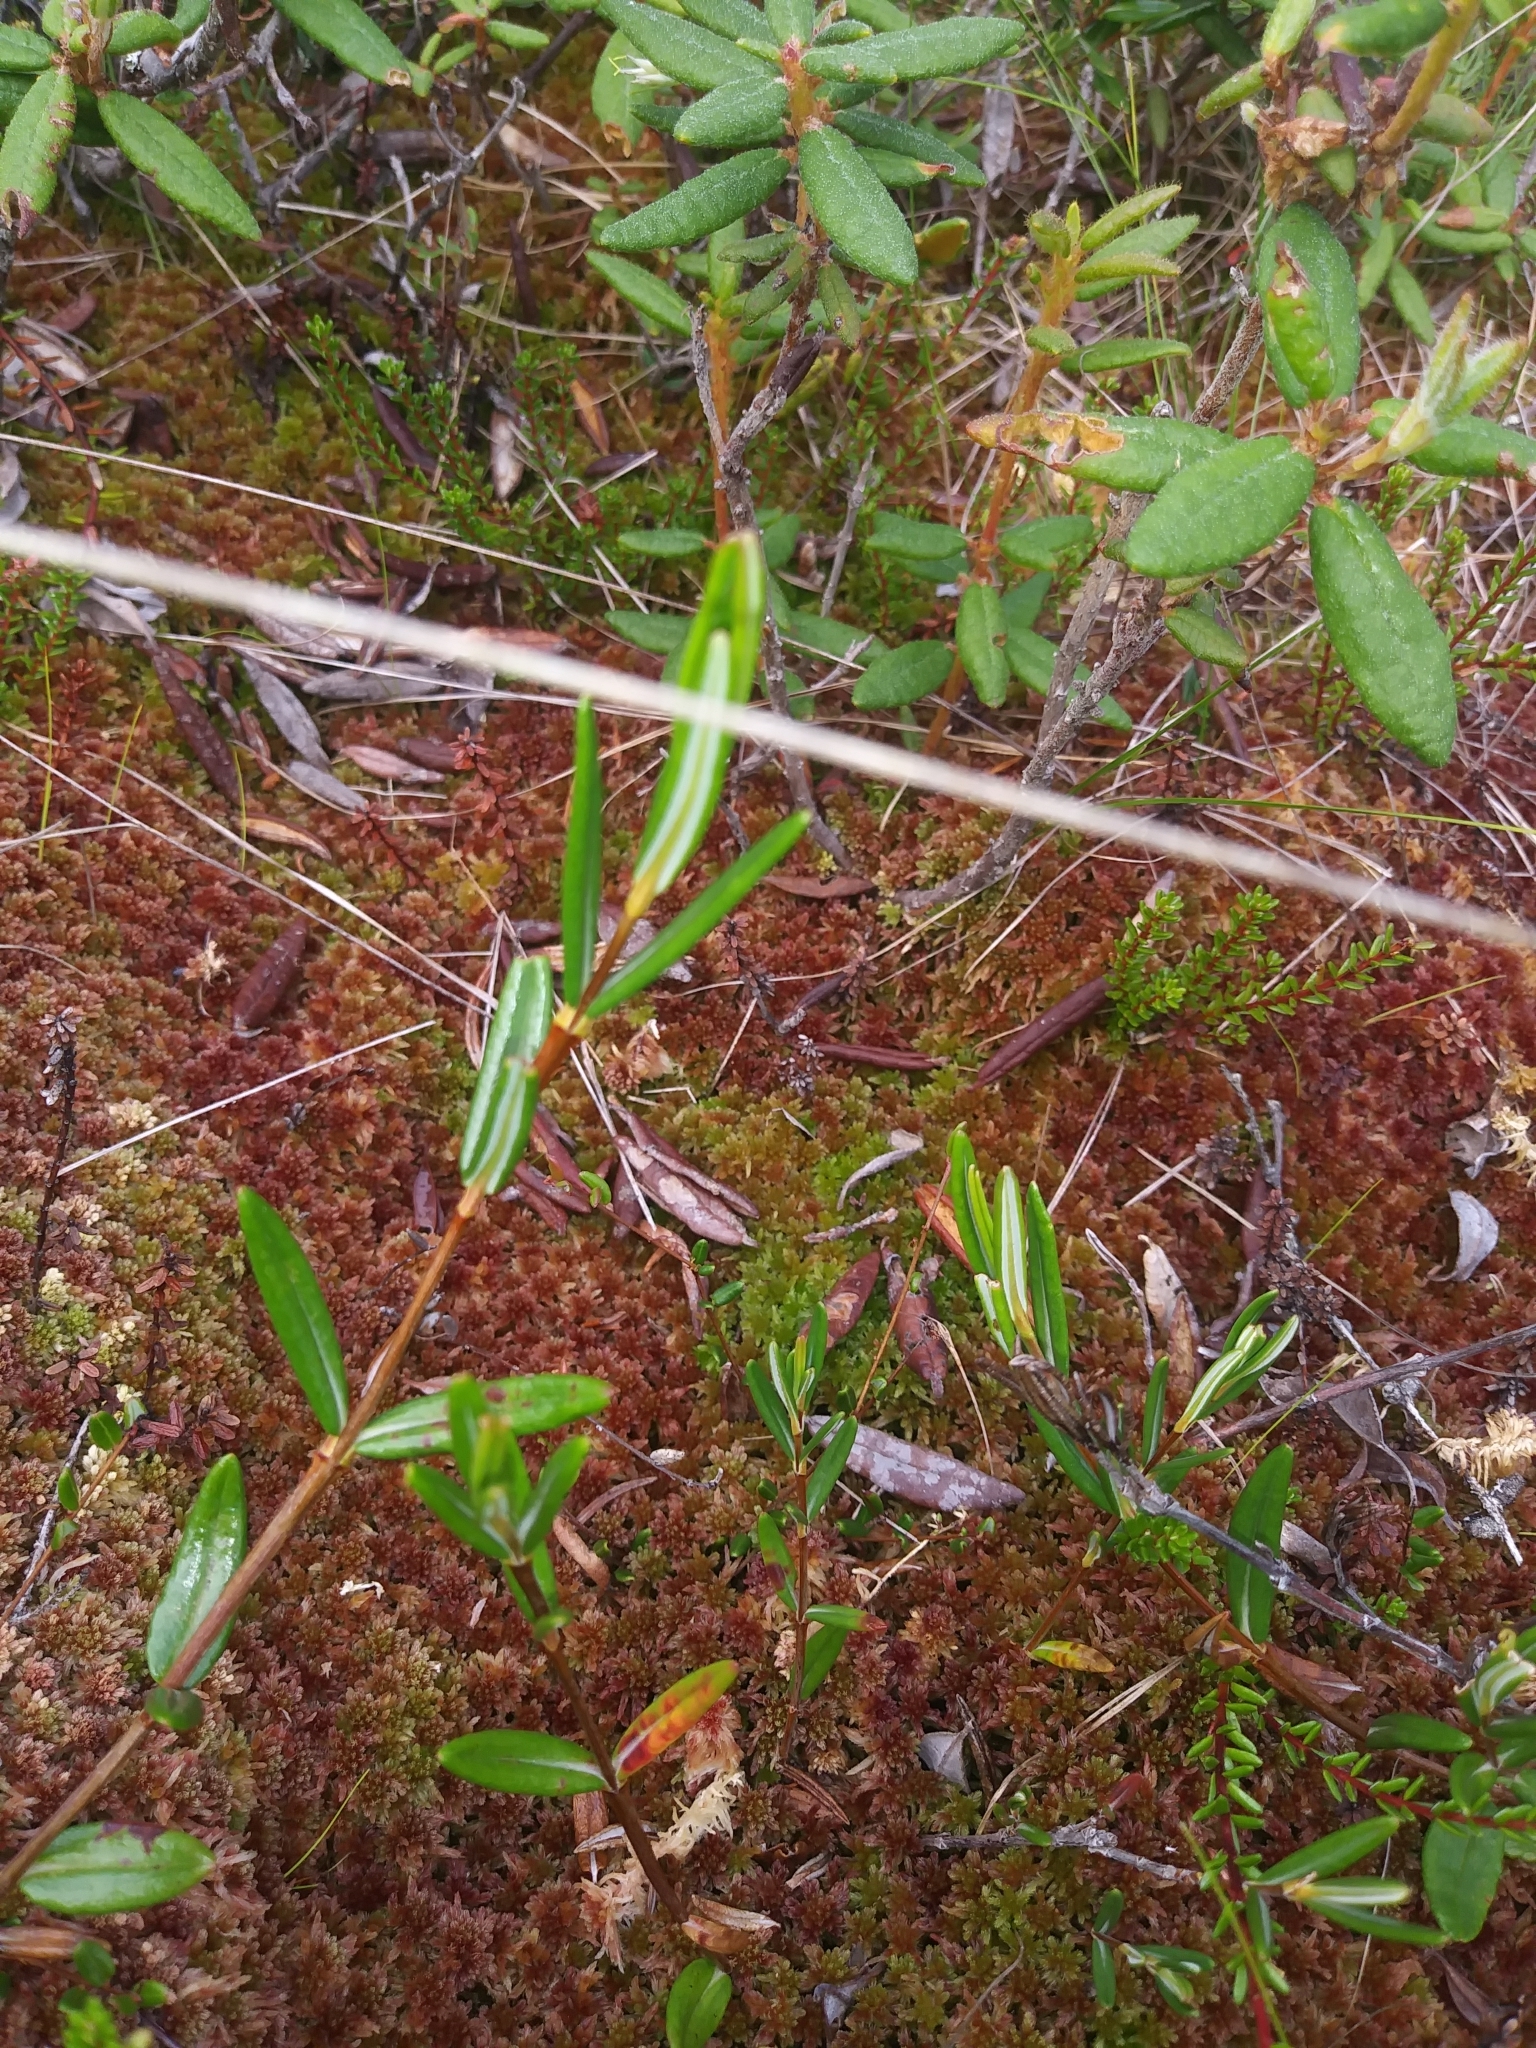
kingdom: Plantae
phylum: Tracheophyta
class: Magnoliopsida
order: Ericales
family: Ericaceae
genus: Kalmia
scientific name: Kalmia polifolia
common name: Bog-laurel
